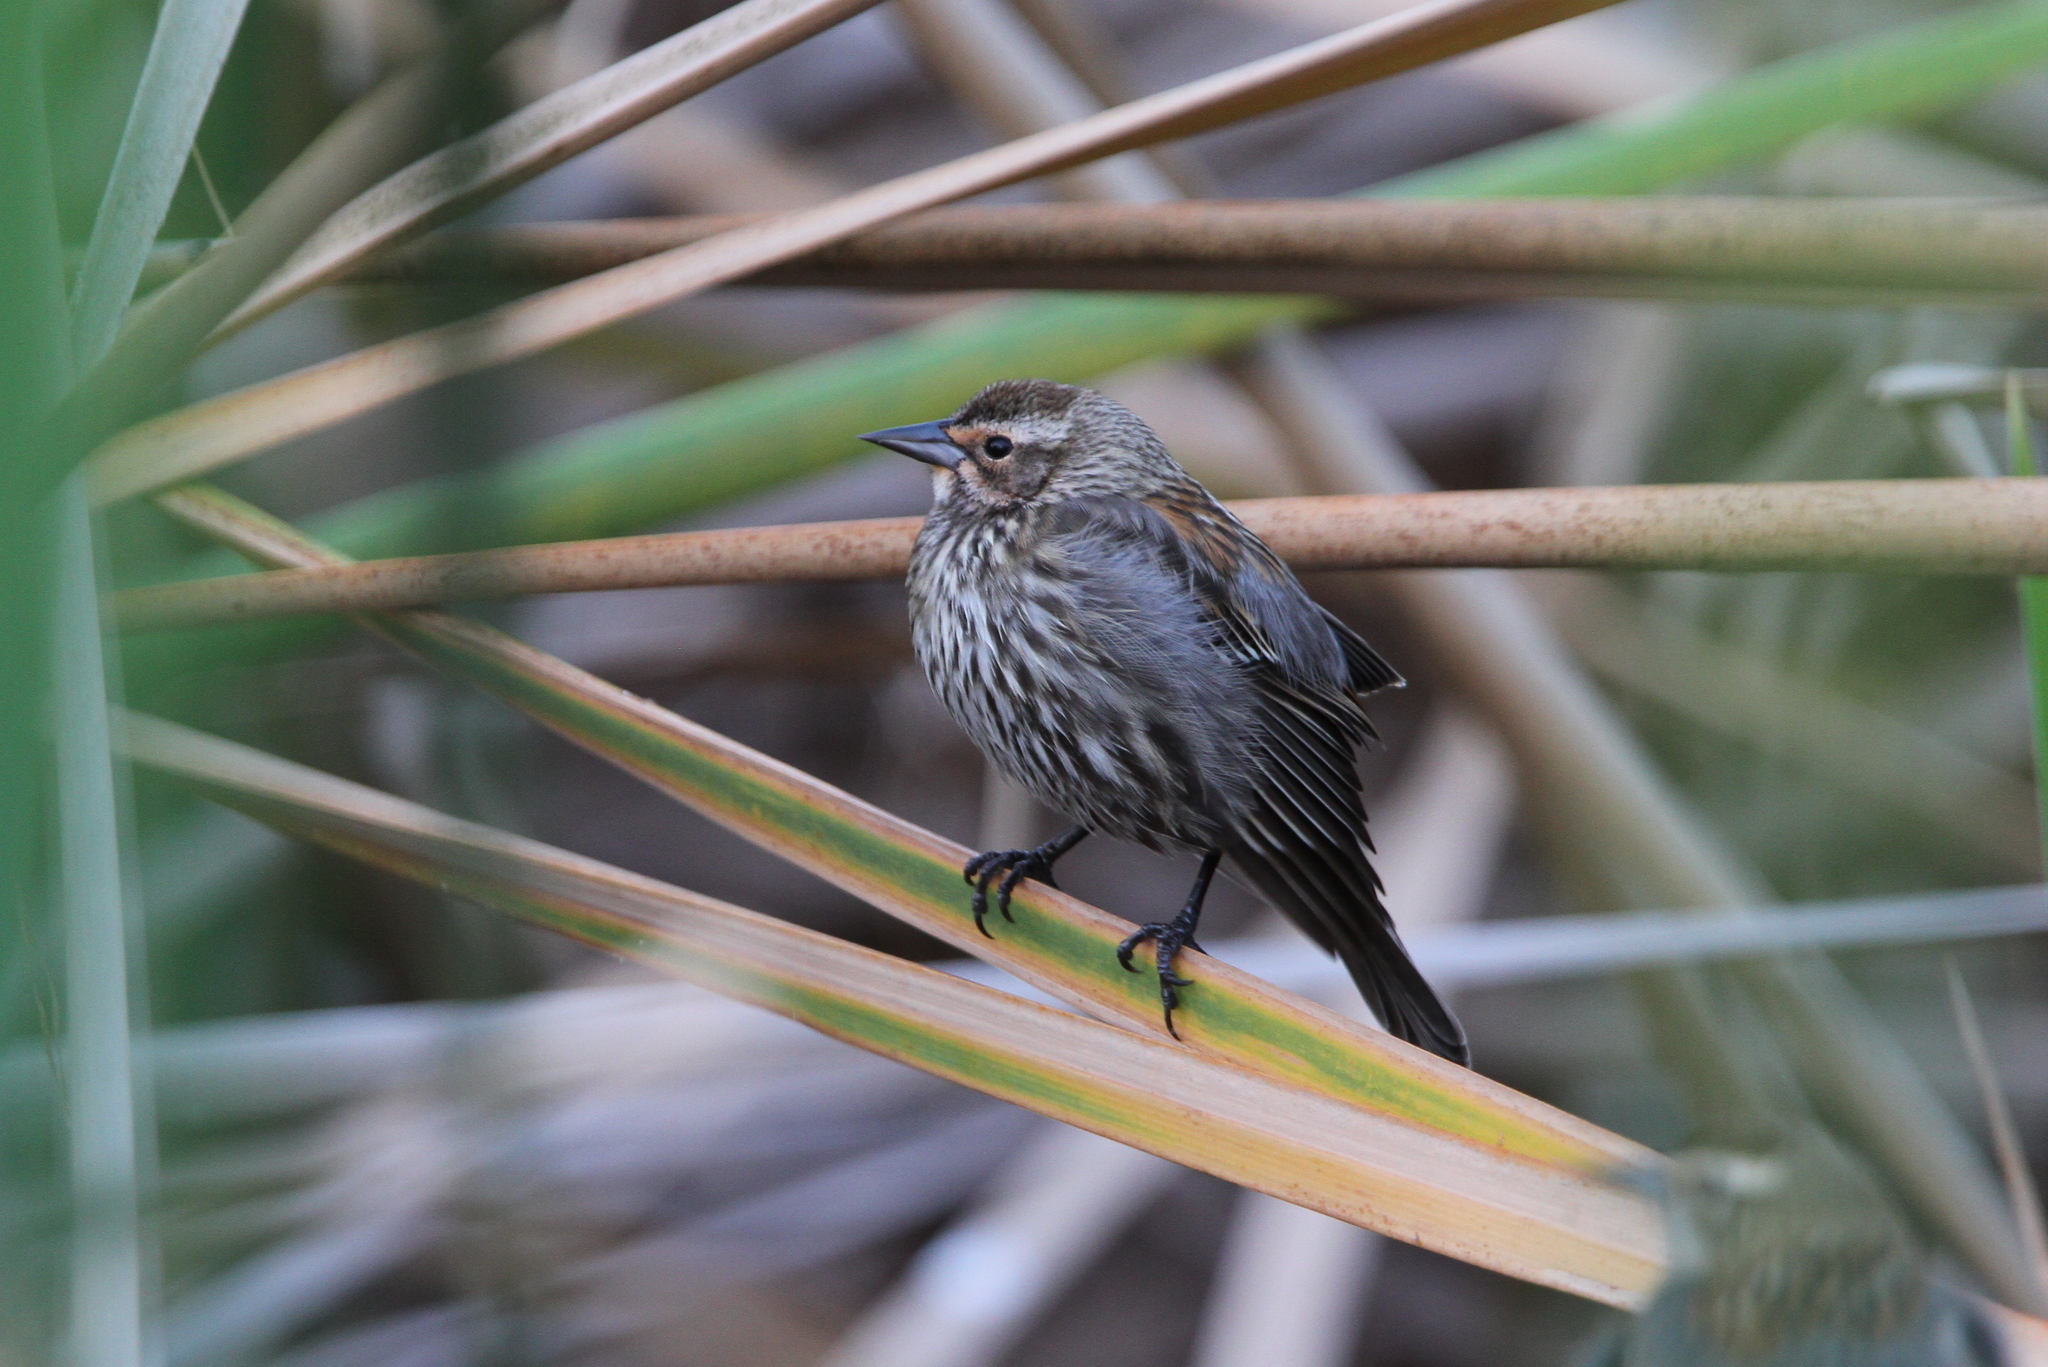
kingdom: Animalia
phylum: Chordata
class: Aves
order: Passeriformes
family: Icteridae
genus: Agelaius
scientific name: Agelaius phoeniceus
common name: Red-winged blackbird
